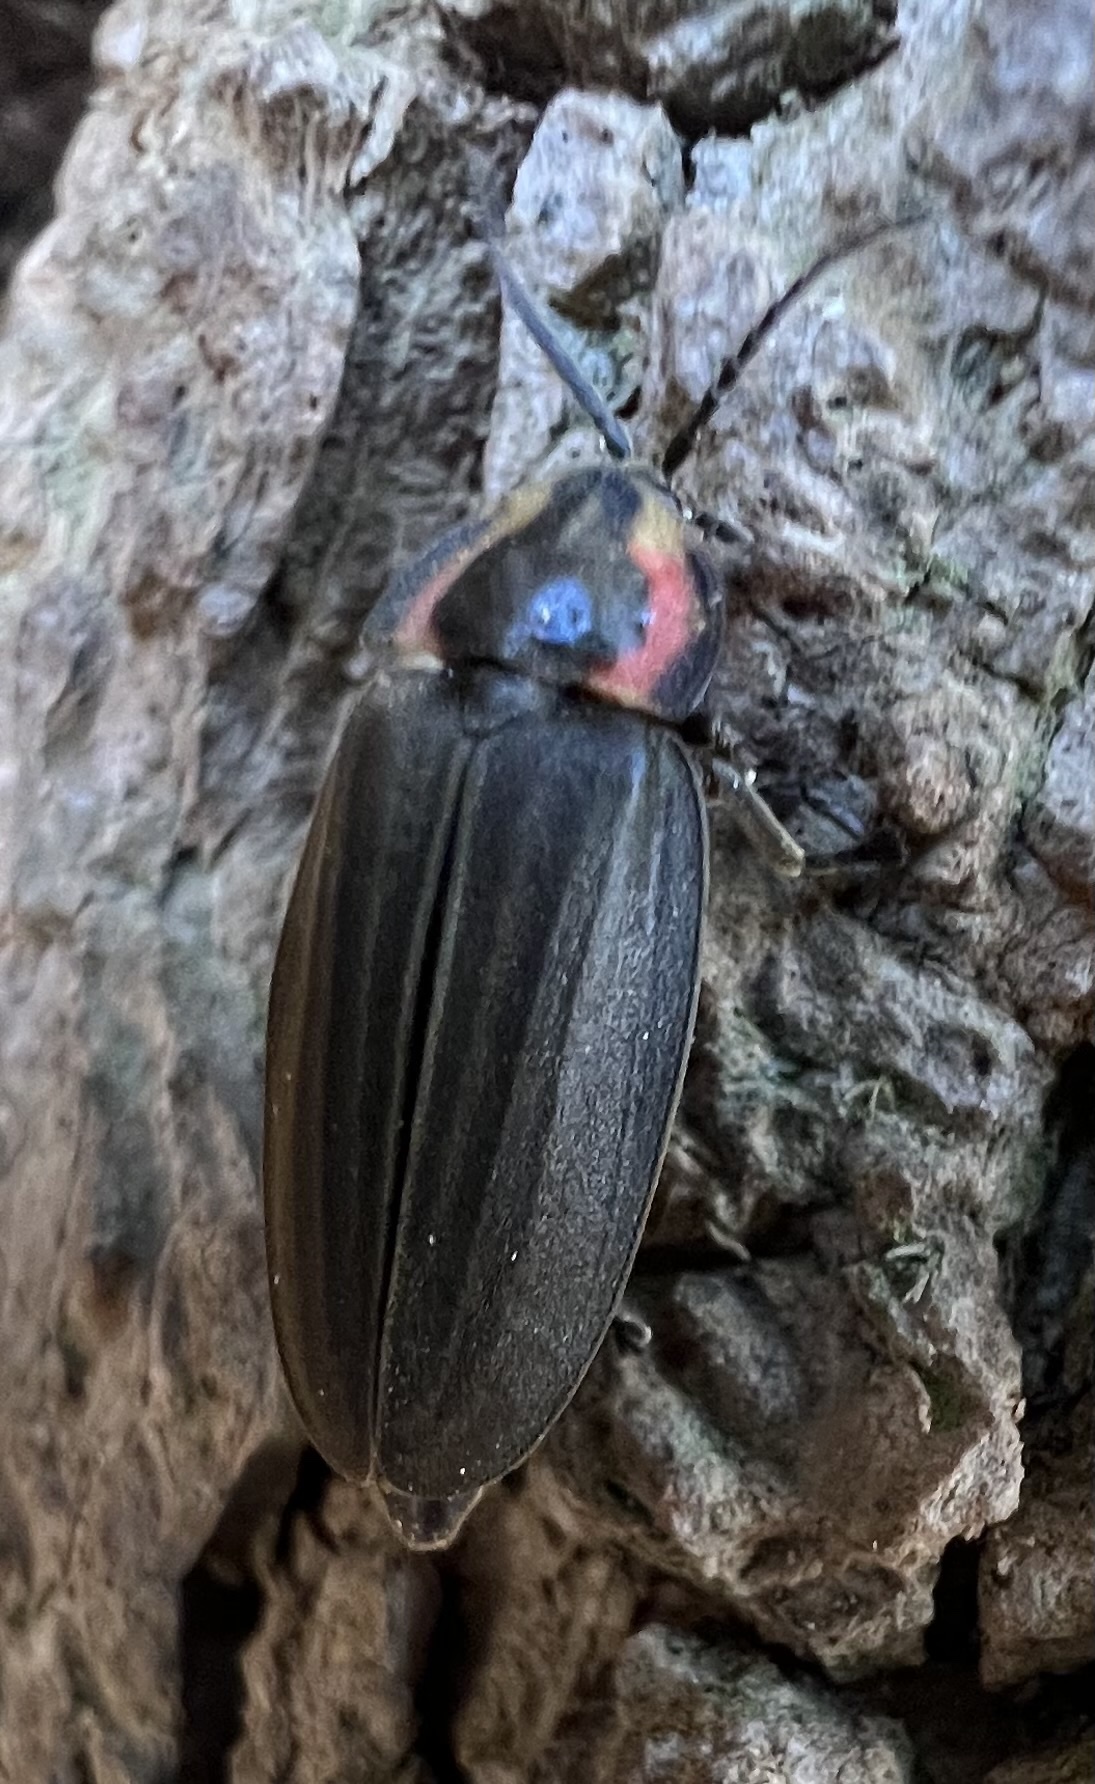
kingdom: Animalia
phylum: Arthropoda
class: Insecta
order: Coleoptera
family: Lampyridae
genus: Photinus
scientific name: Photinus corrusca
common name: Winter firefly
